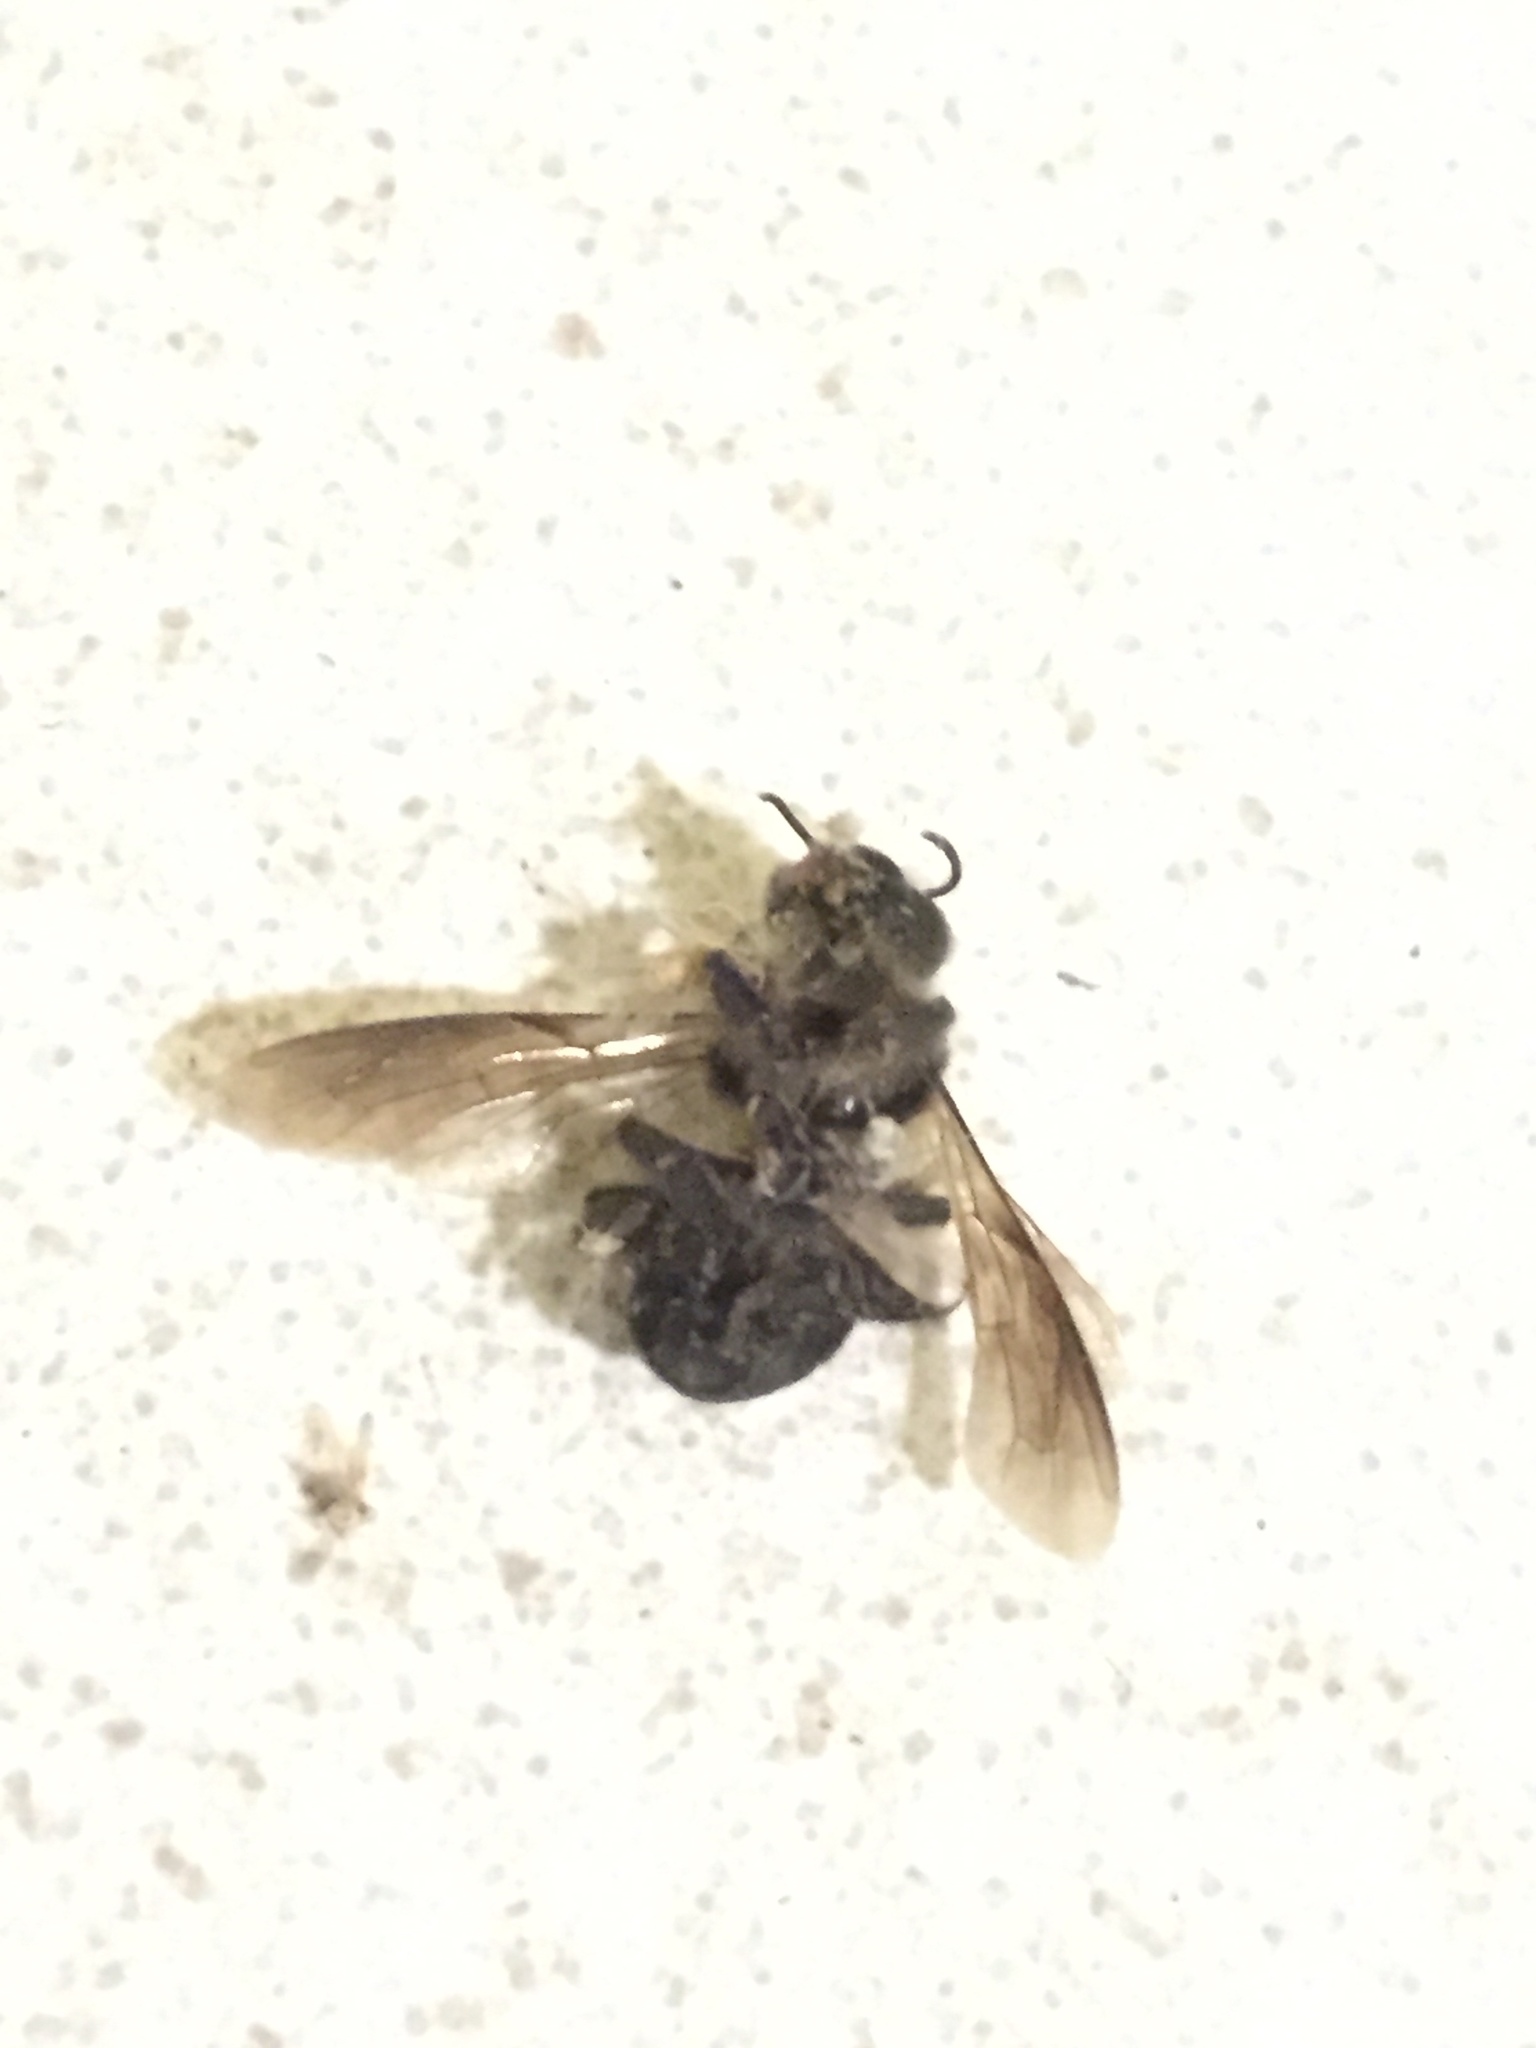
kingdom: Animalia
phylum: Arthropoda
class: Insecta
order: Hymenoptera
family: Apidae
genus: Apis
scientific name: Apis dorsata
